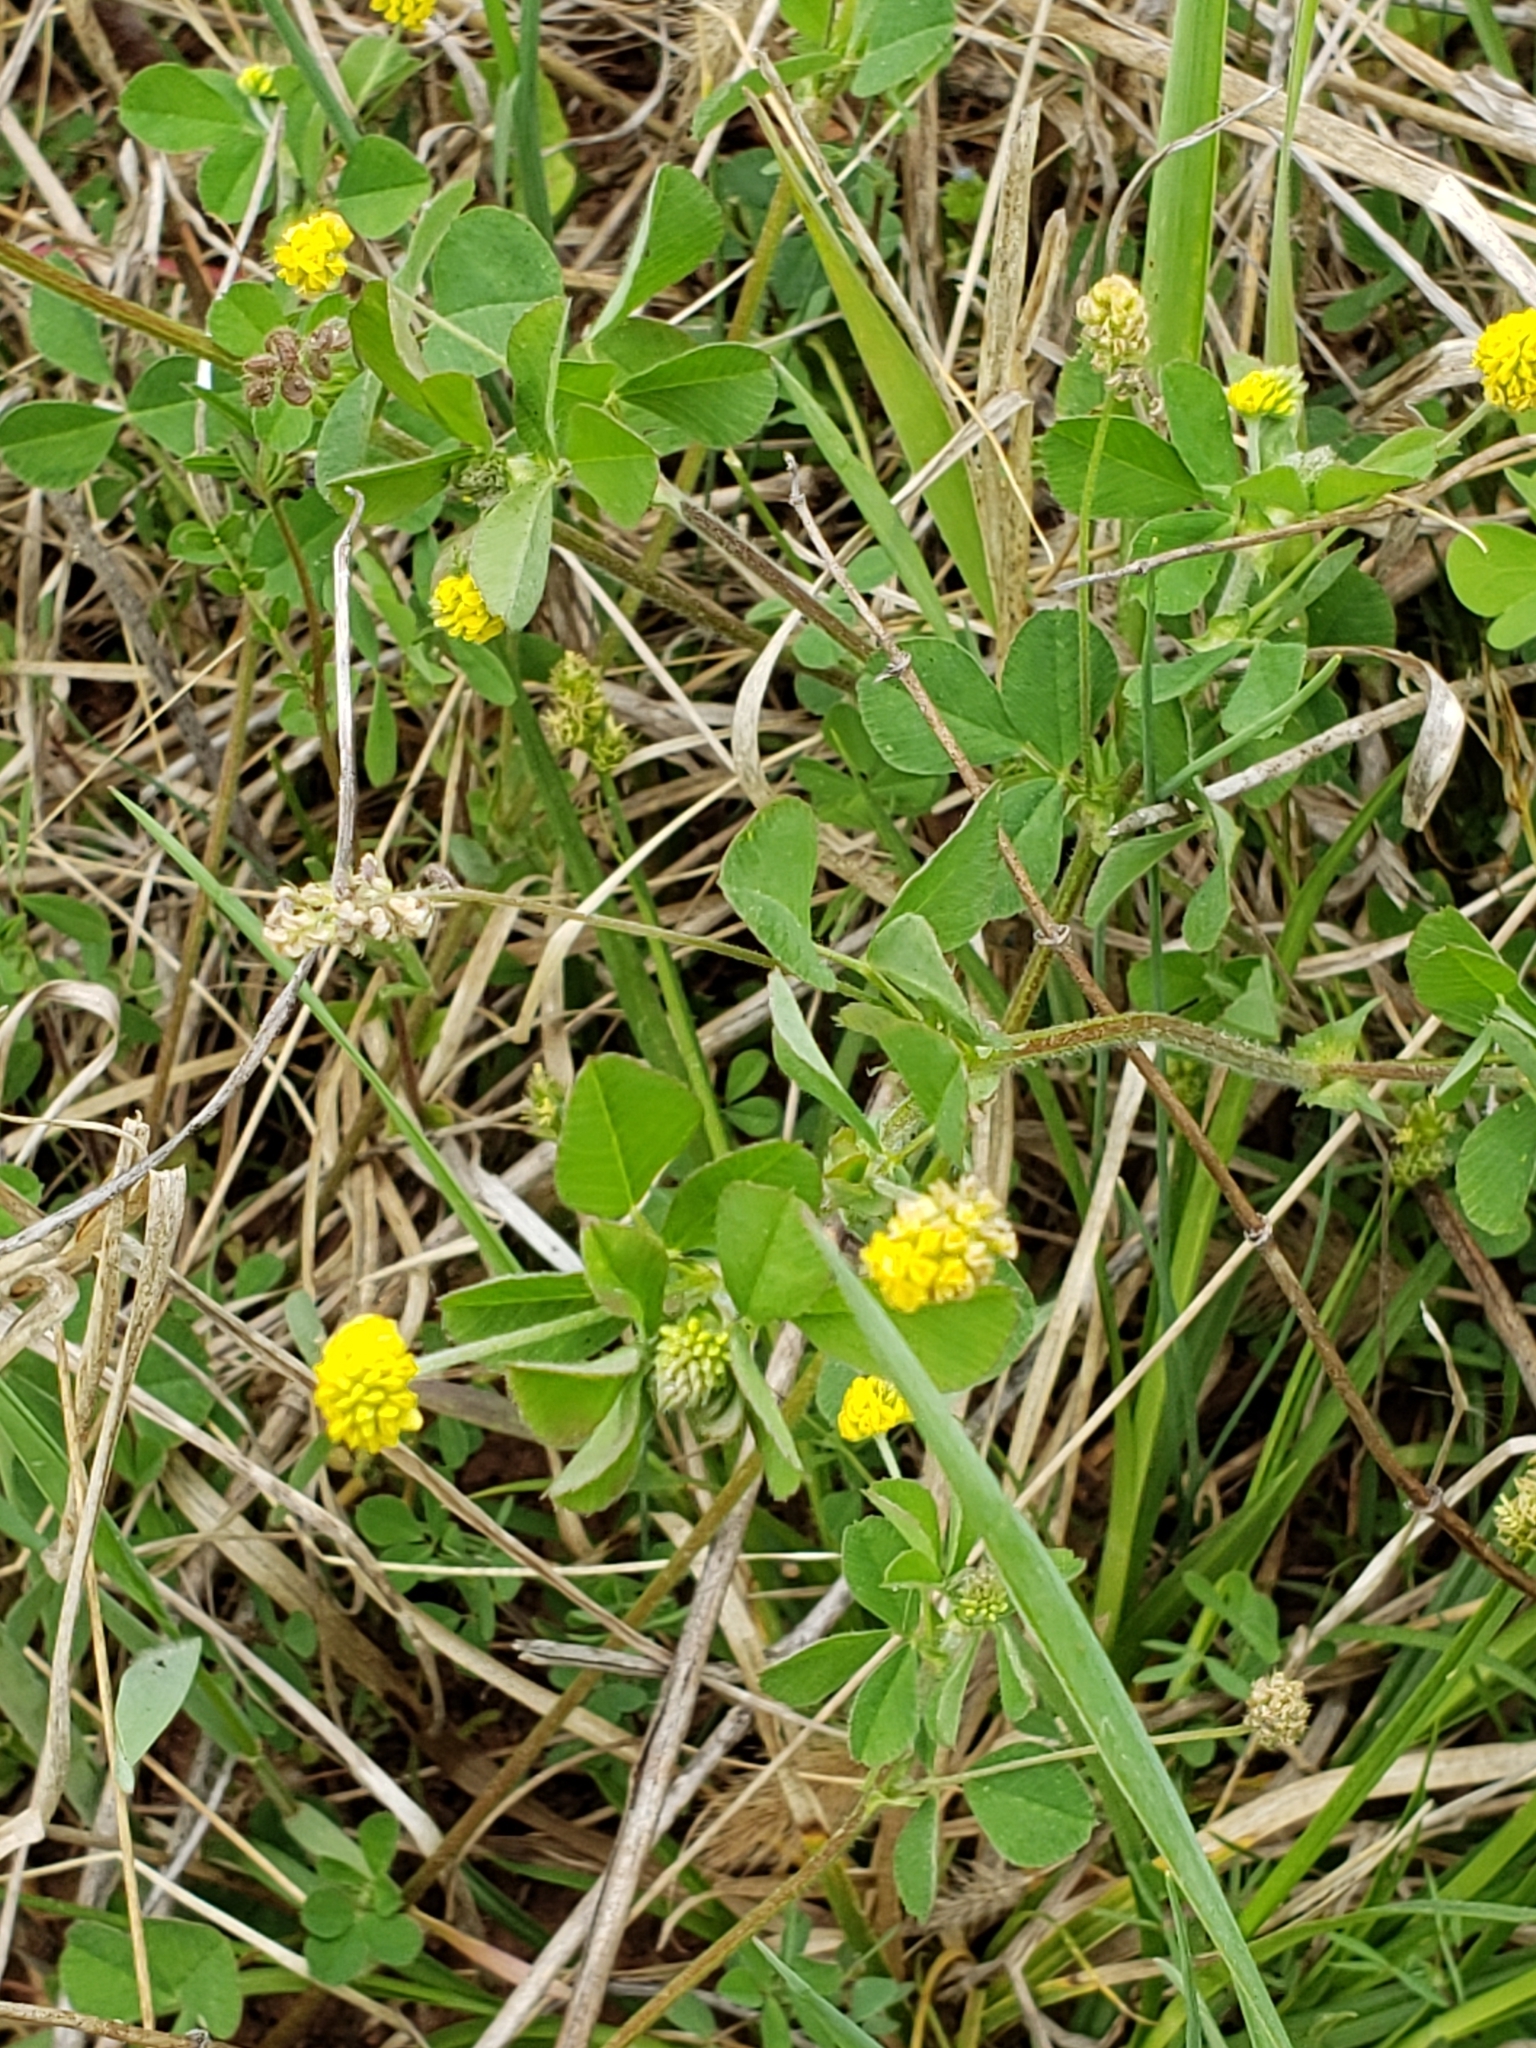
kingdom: Plantae
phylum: Tracheophyta
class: Magnoliopsida
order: Fabales
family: Fabaceae
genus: Medicago
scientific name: Medicago lupulina
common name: Black medick
